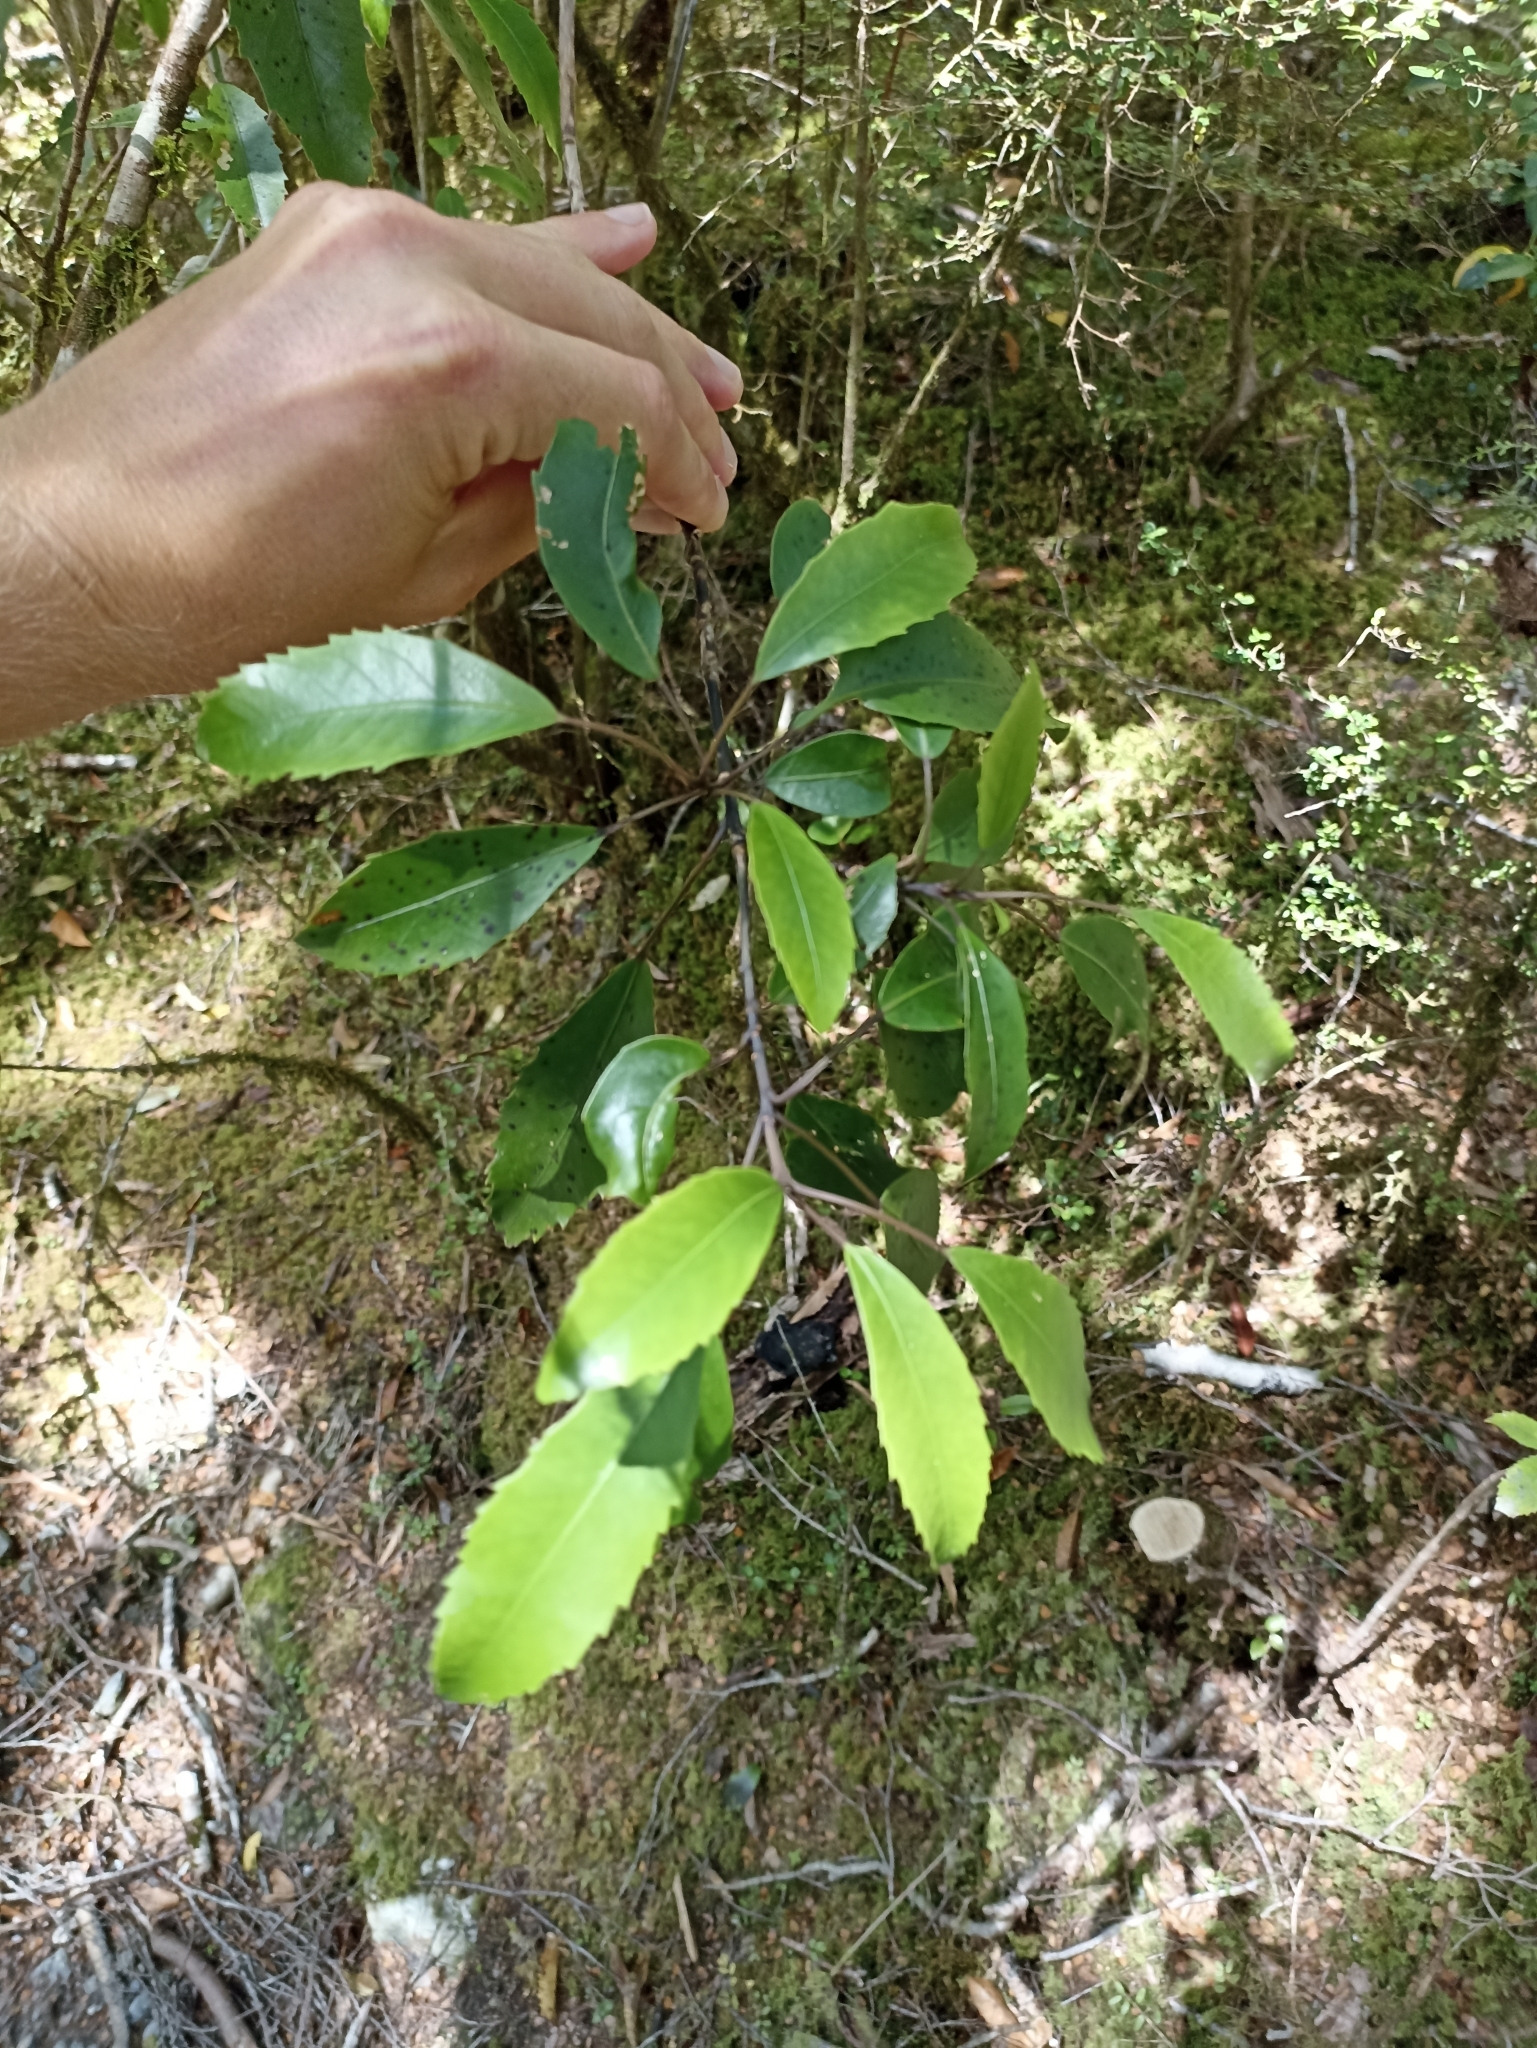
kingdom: Plantae
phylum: Tracheophyta
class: Magnoliopsida
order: Apiales
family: Araliaceae
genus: Raukaua
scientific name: Raukaua simplex
